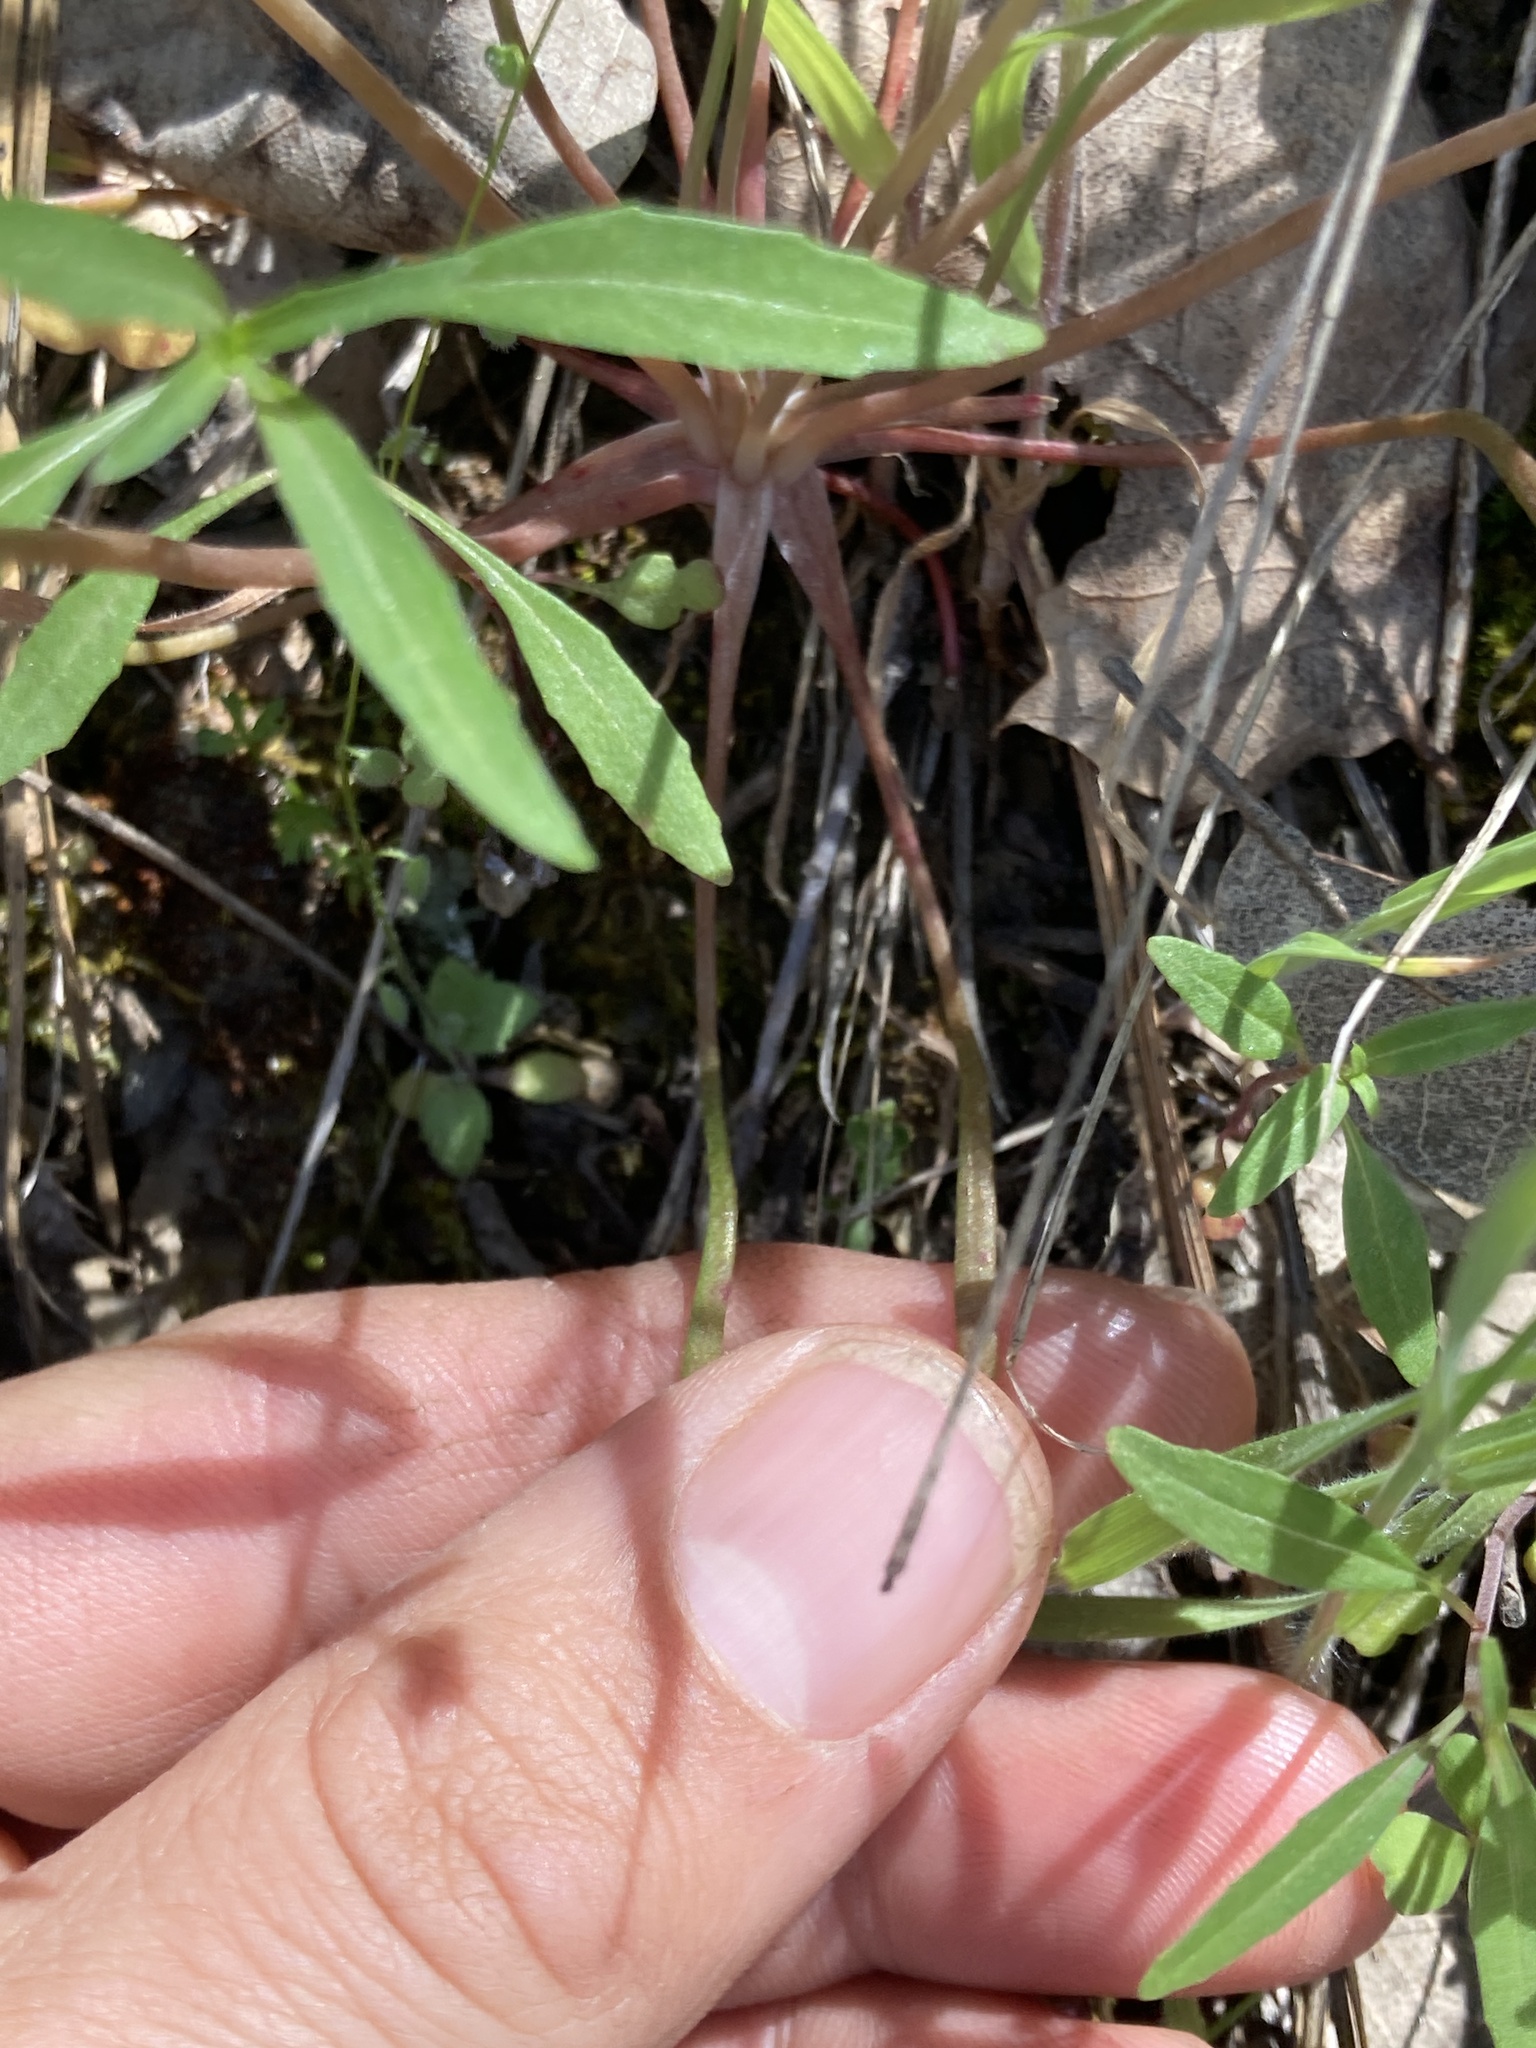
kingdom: Plantae
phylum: Tracheophyta
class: Magnoliopsida
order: Caryophyllales
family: Montiaceae
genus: Claytonia
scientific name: Claytonia parviflora
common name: Indian-lettuce
